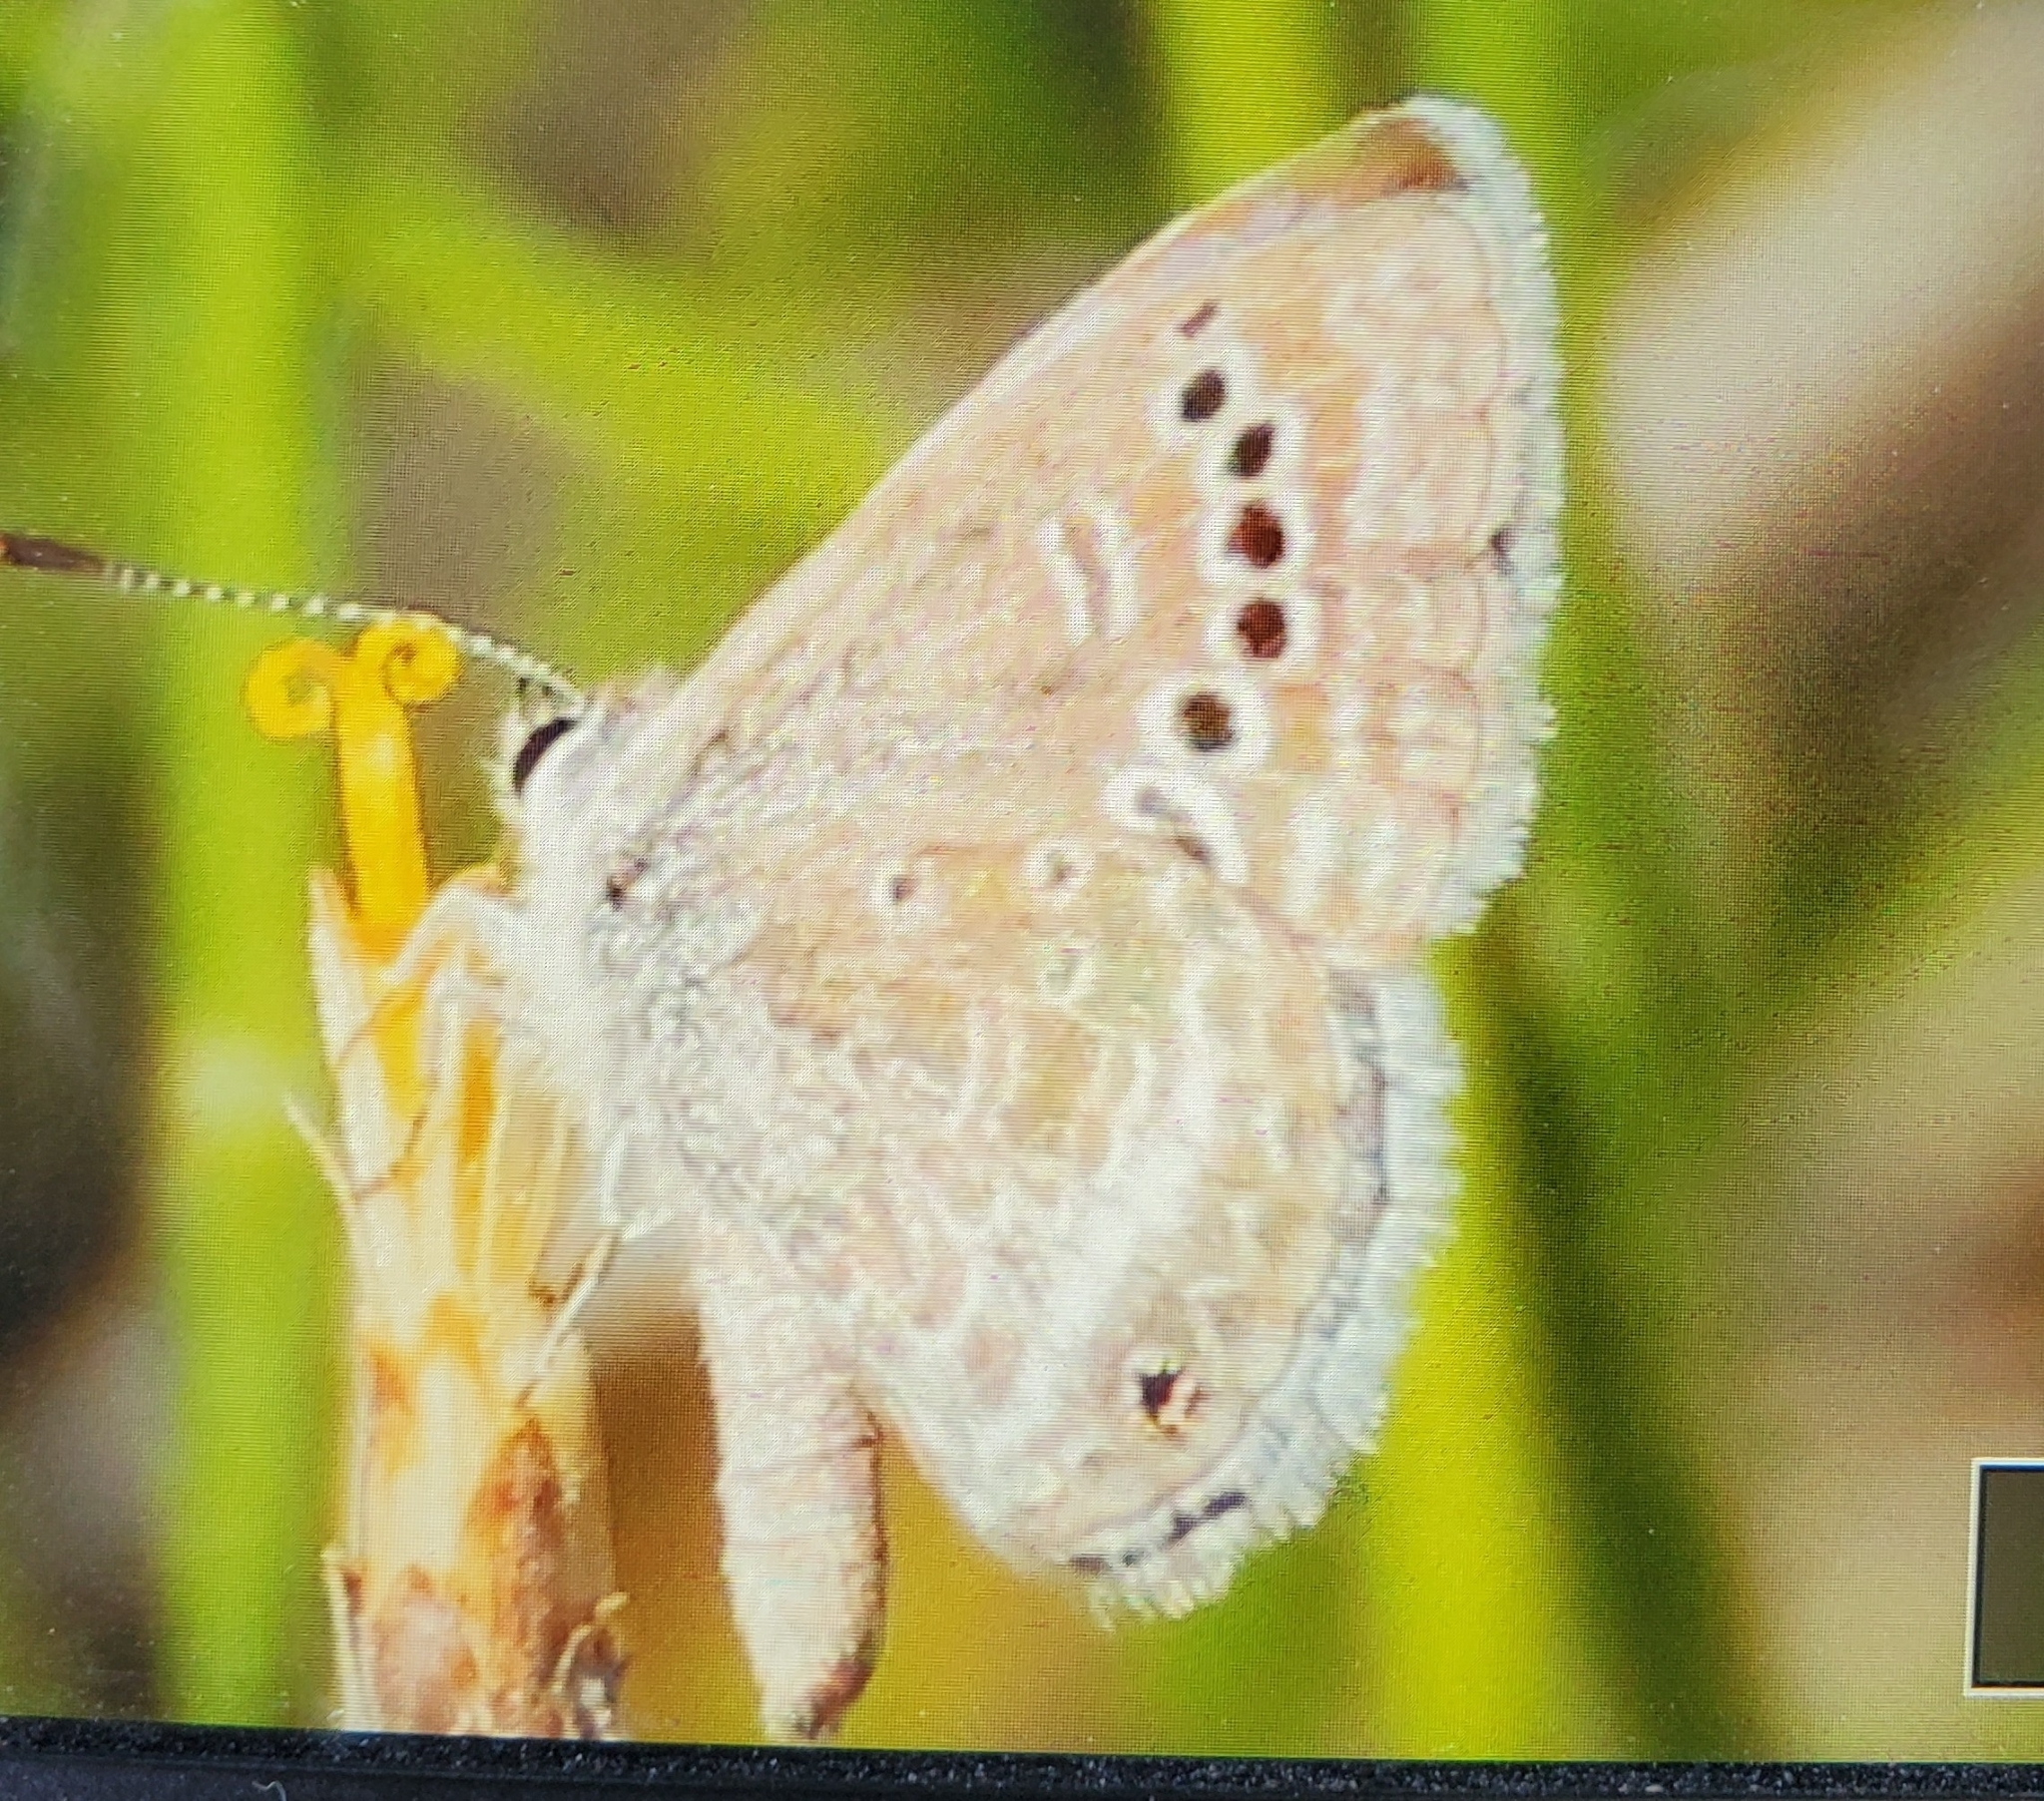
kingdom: Animalia
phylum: Arthropoda
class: Insecta
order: Lepidoptera
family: Lycaenidae
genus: Echinargus
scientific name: Echinargus isola
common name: Reakirt's blue
